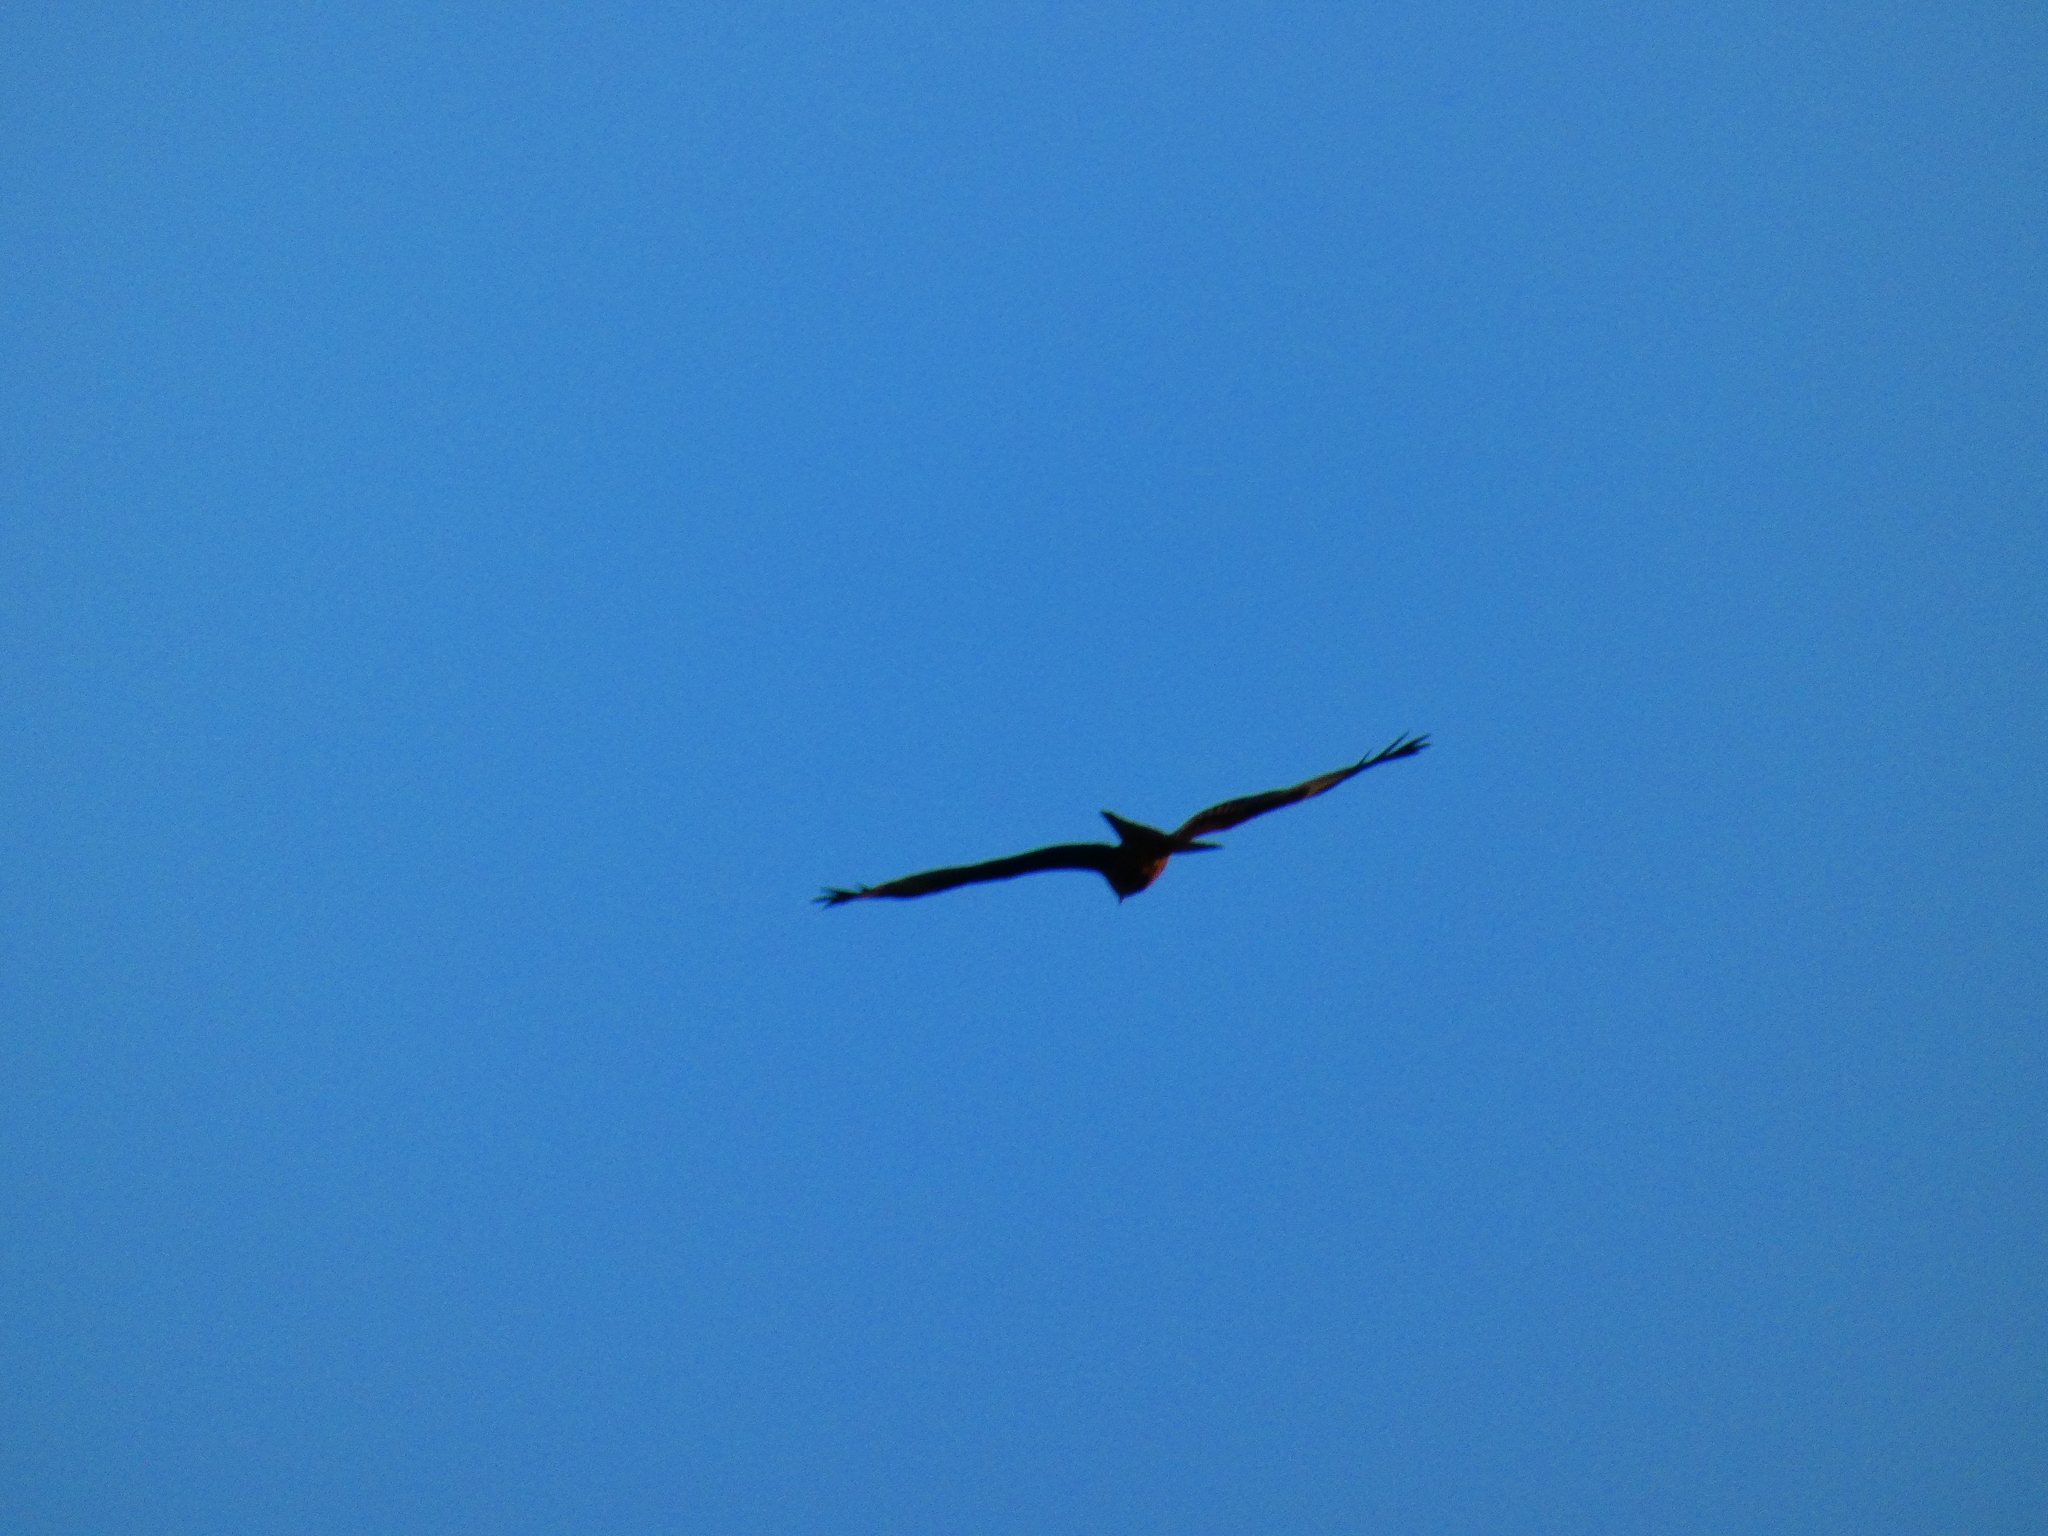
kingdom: Animalia
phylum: Chordata
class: Aves
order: Accipitriformes
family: Accipitridae
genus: Milvus
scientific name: Milvus milvus
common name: Red kite
